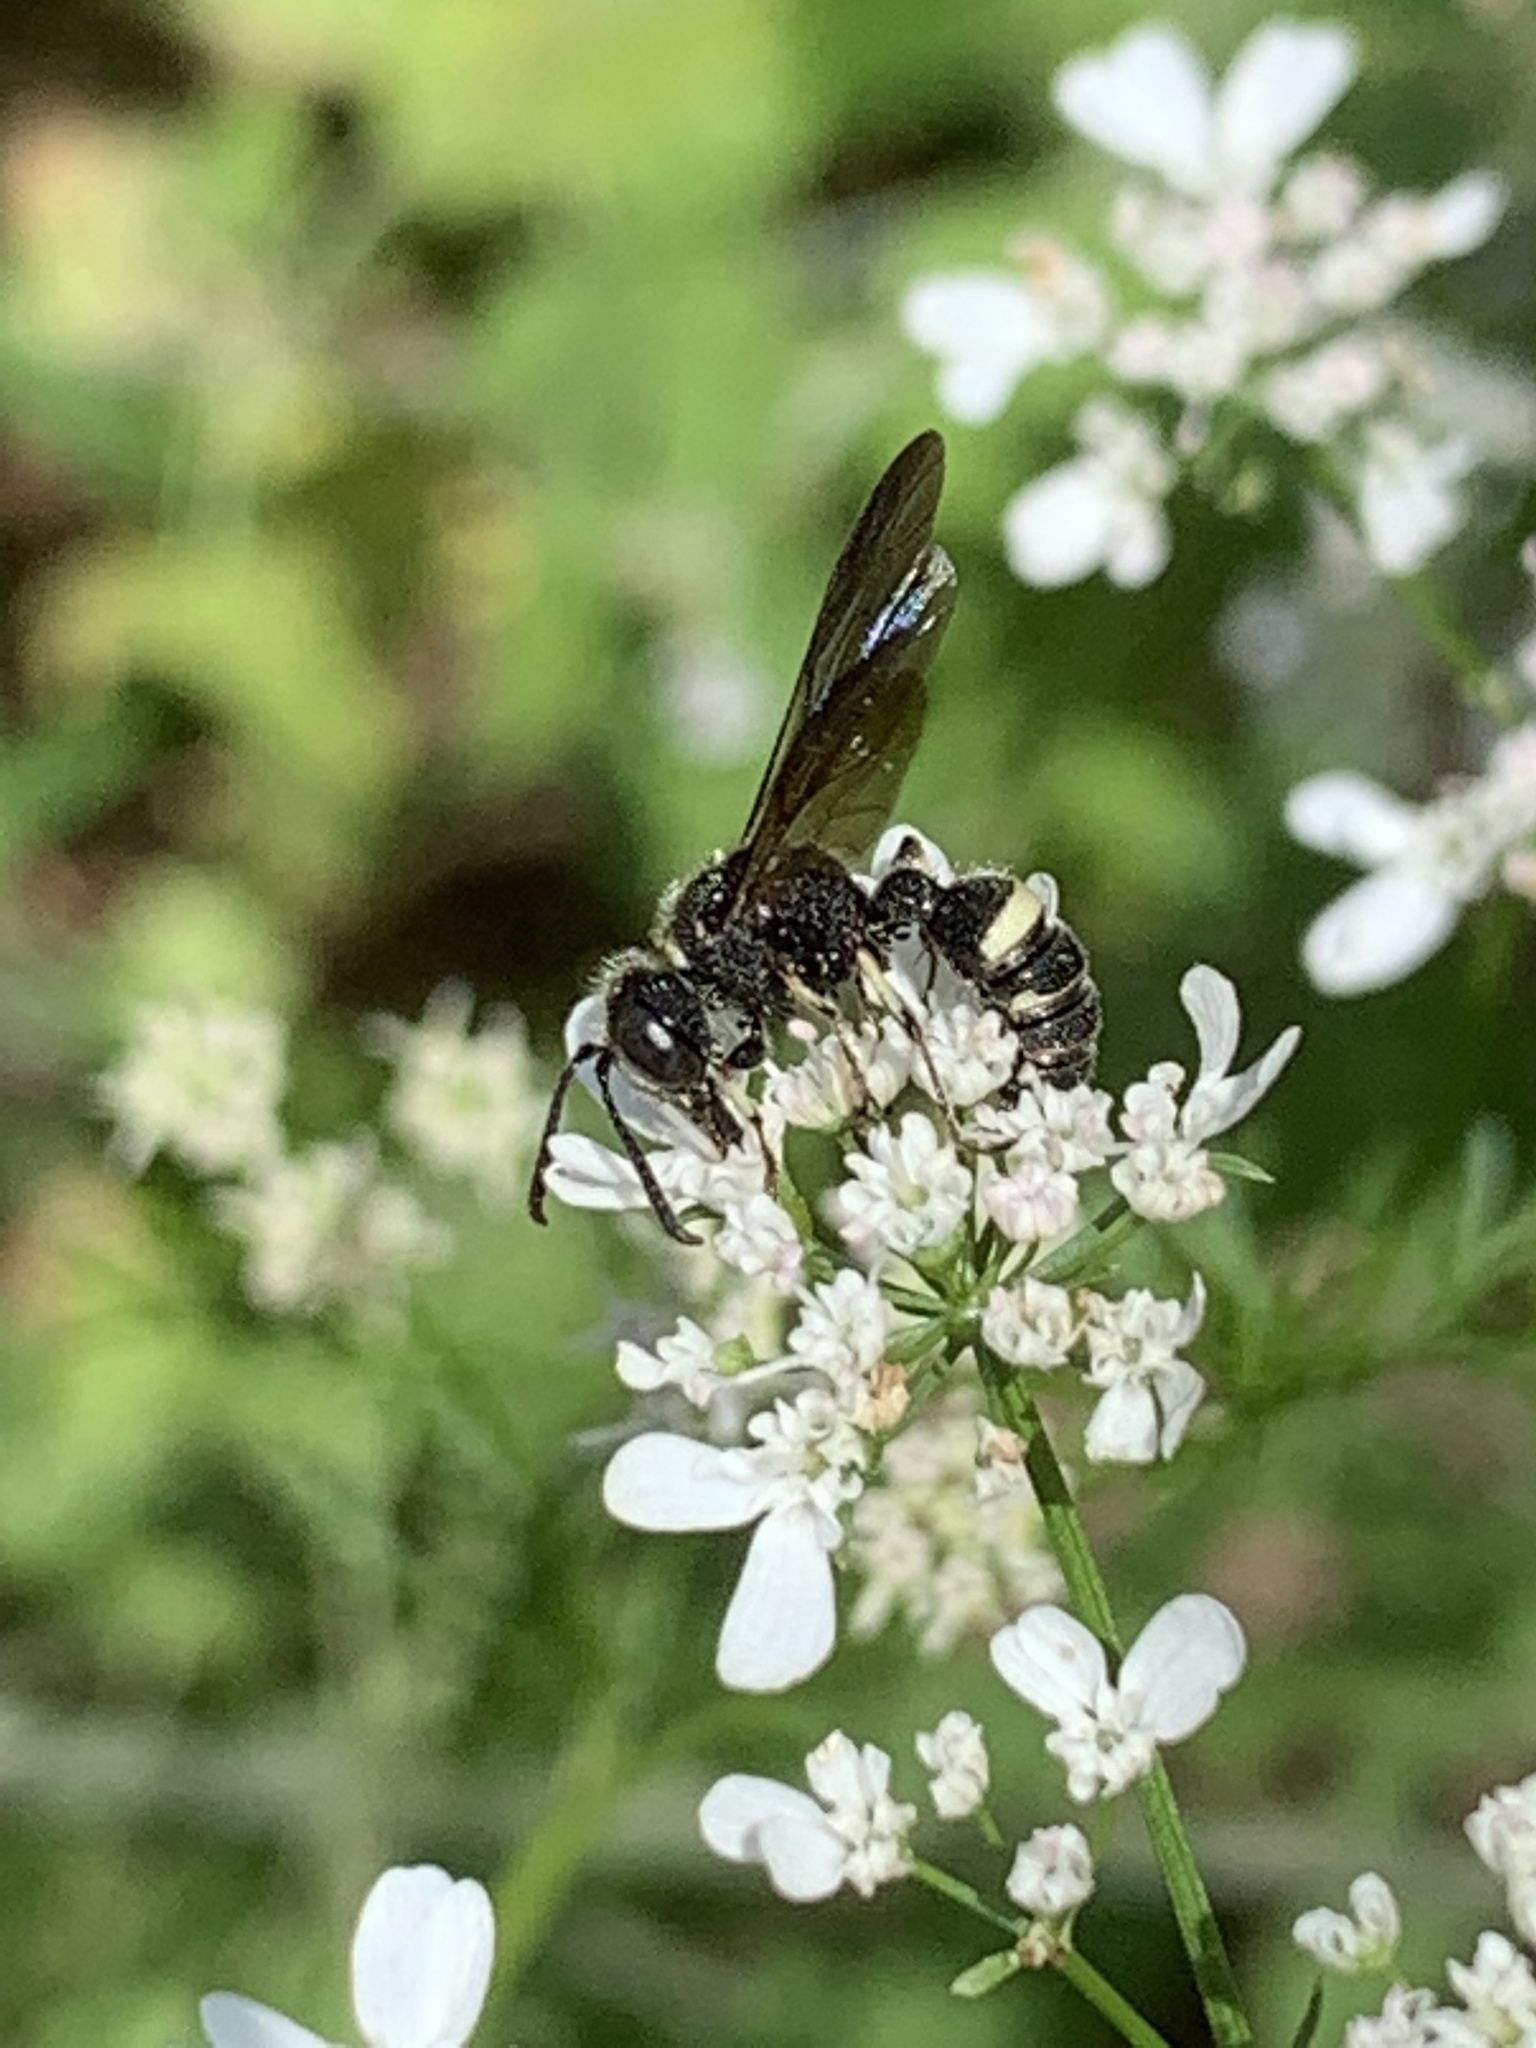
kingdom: Animalia
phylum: Arthropoda
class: Insecta
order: Hymenoptera
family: Crabronidae
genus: Cerceris
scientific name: Cerceris fumipennis
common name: Smokey-winged beetle bandit wasp
